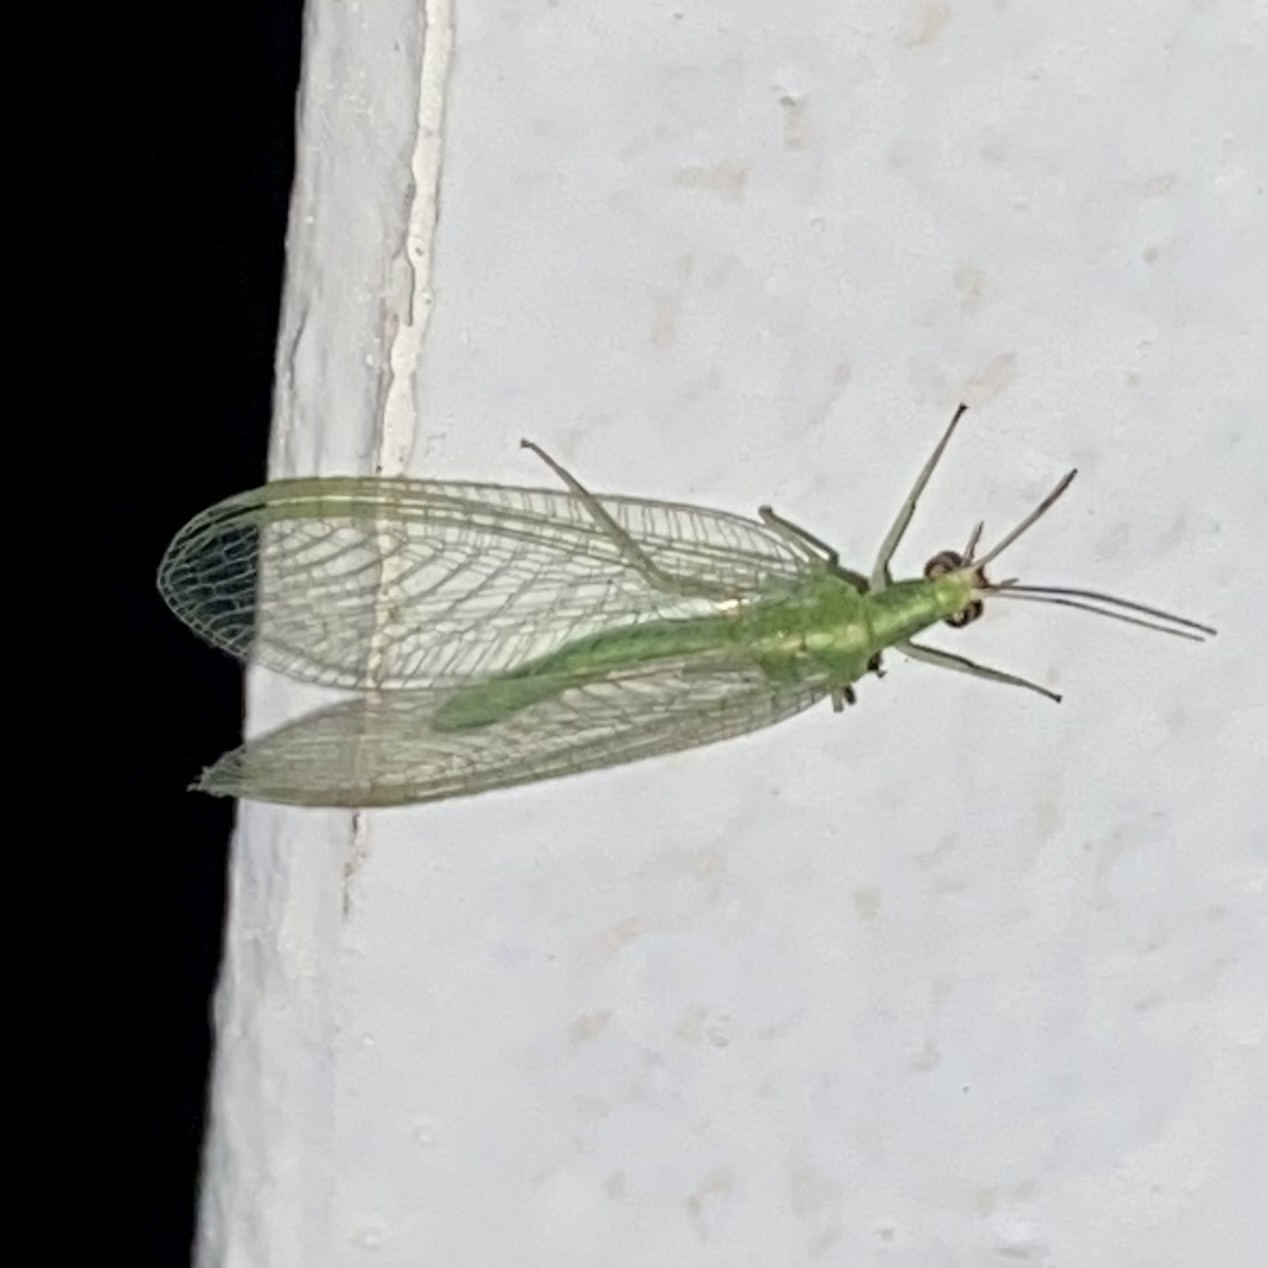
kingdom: Animalia
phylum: Arthropoda
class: Insecta
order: Neuroptera
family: Chrysopidae
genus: Chrysoperla
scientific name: Chrysoperla
